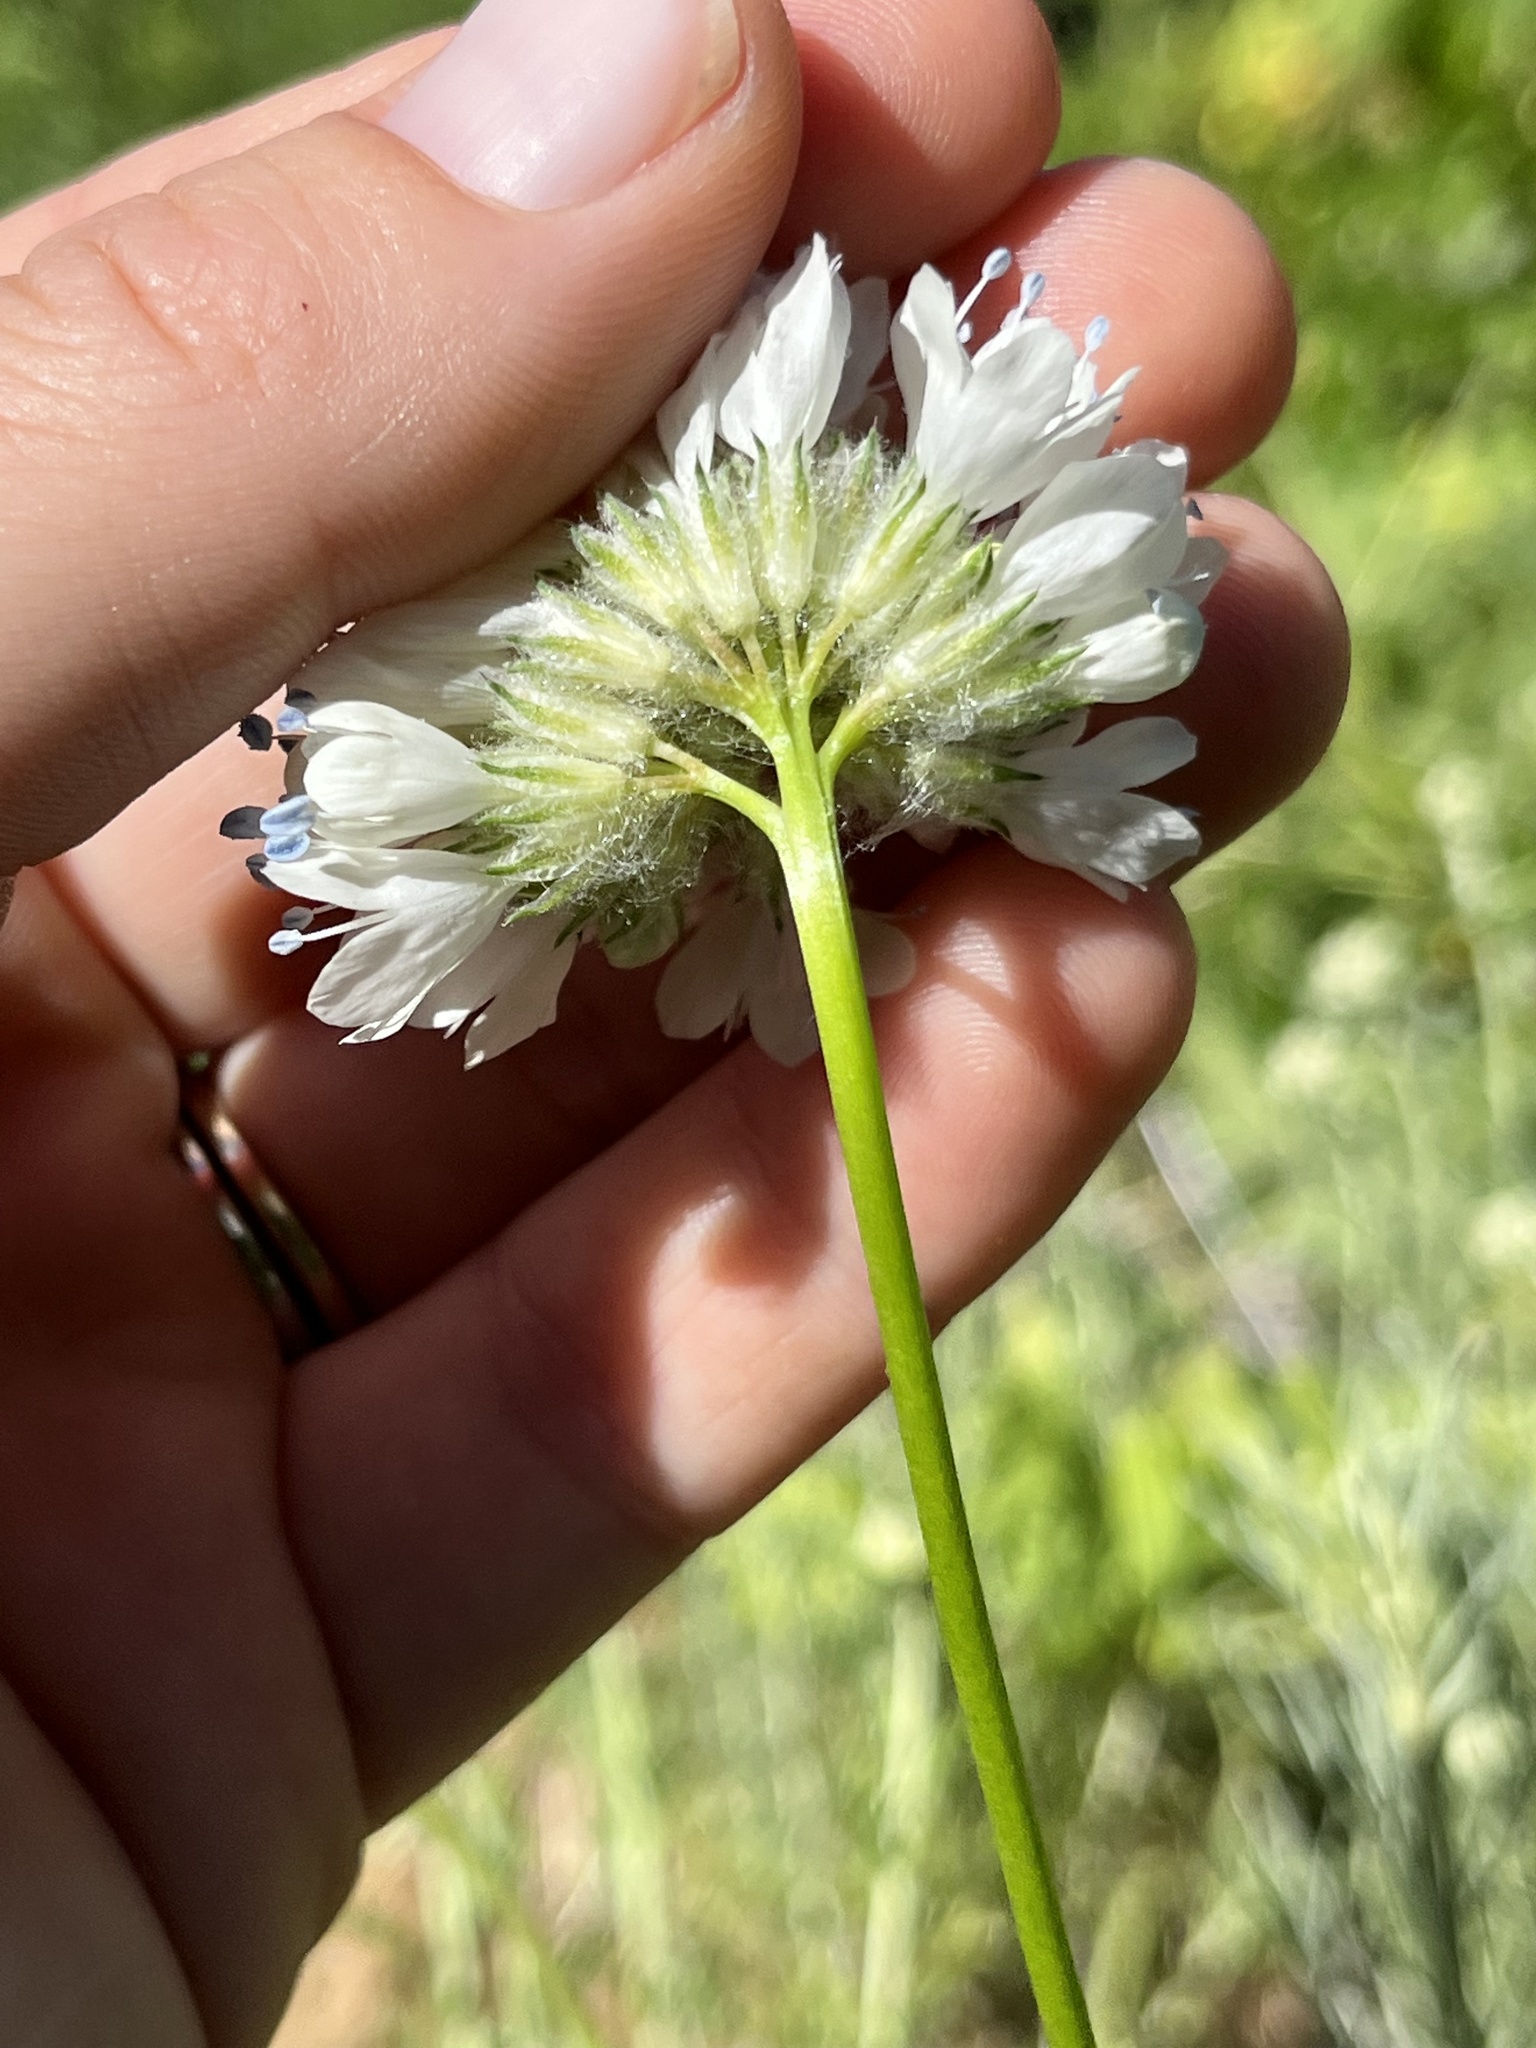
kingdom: Plantae
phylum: Tracheophyta
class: Magnoliopsida
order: Ericales
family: Polemoniaceae
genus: Gilia
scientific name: Gilia capitata
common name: Bluehead gilia
